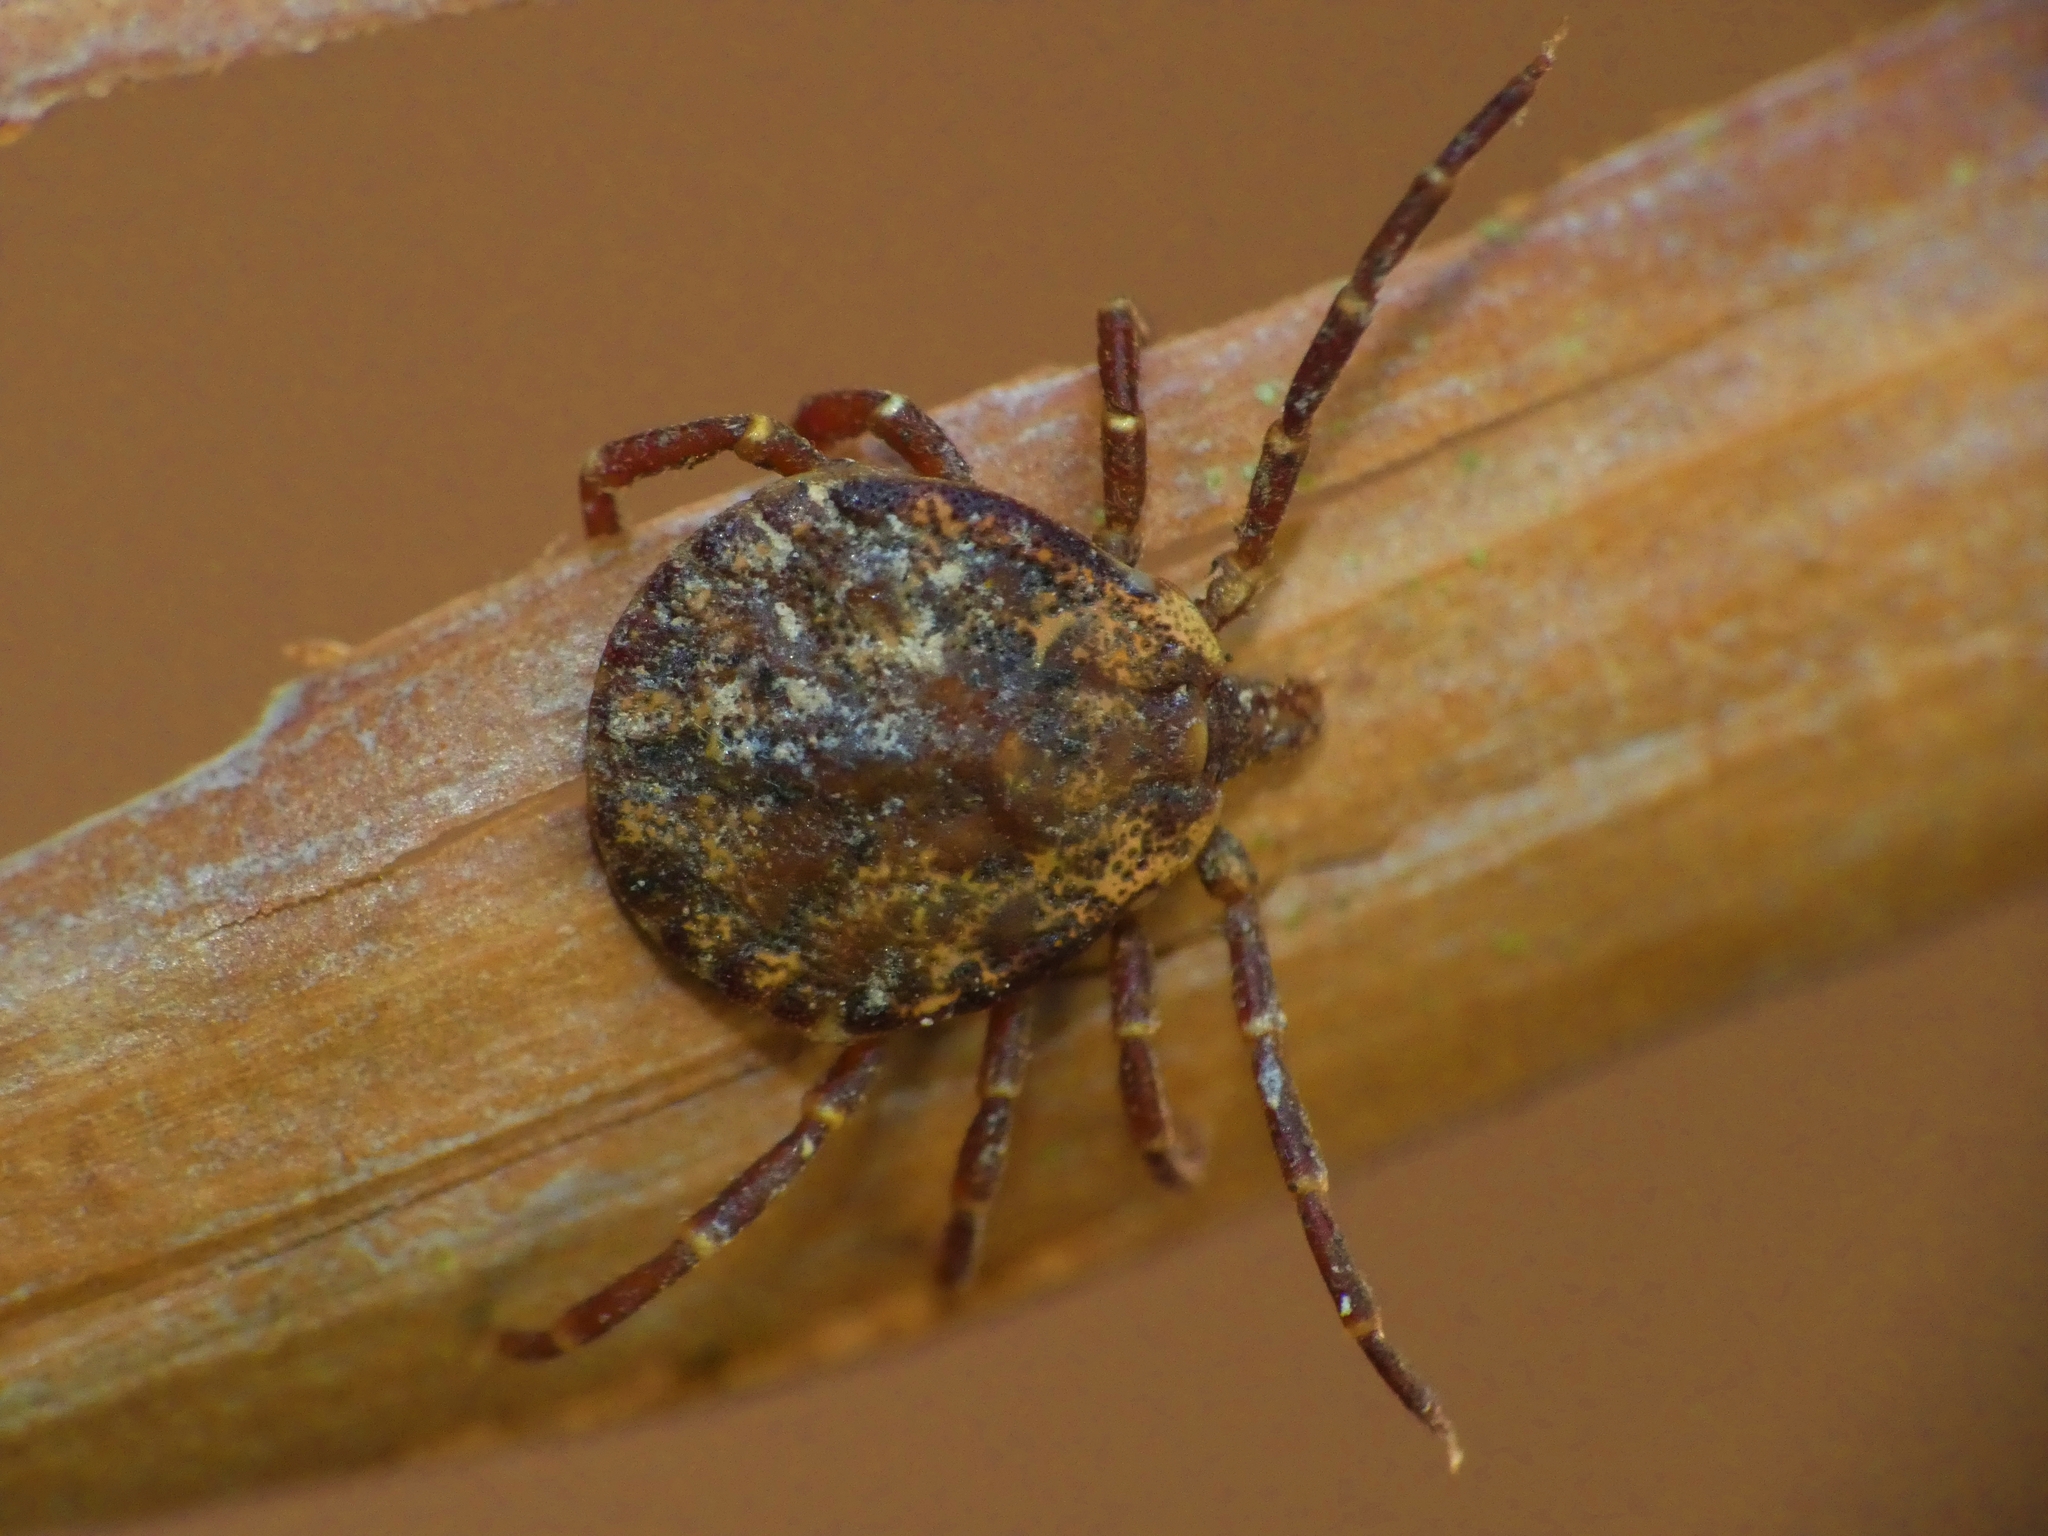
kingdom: Animalia
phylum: Arthropoda
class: Arachnida
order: Ixodida
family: Ixodidae
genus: Amblyomma
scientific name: Amblyomma moreliae
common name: Snake tick
